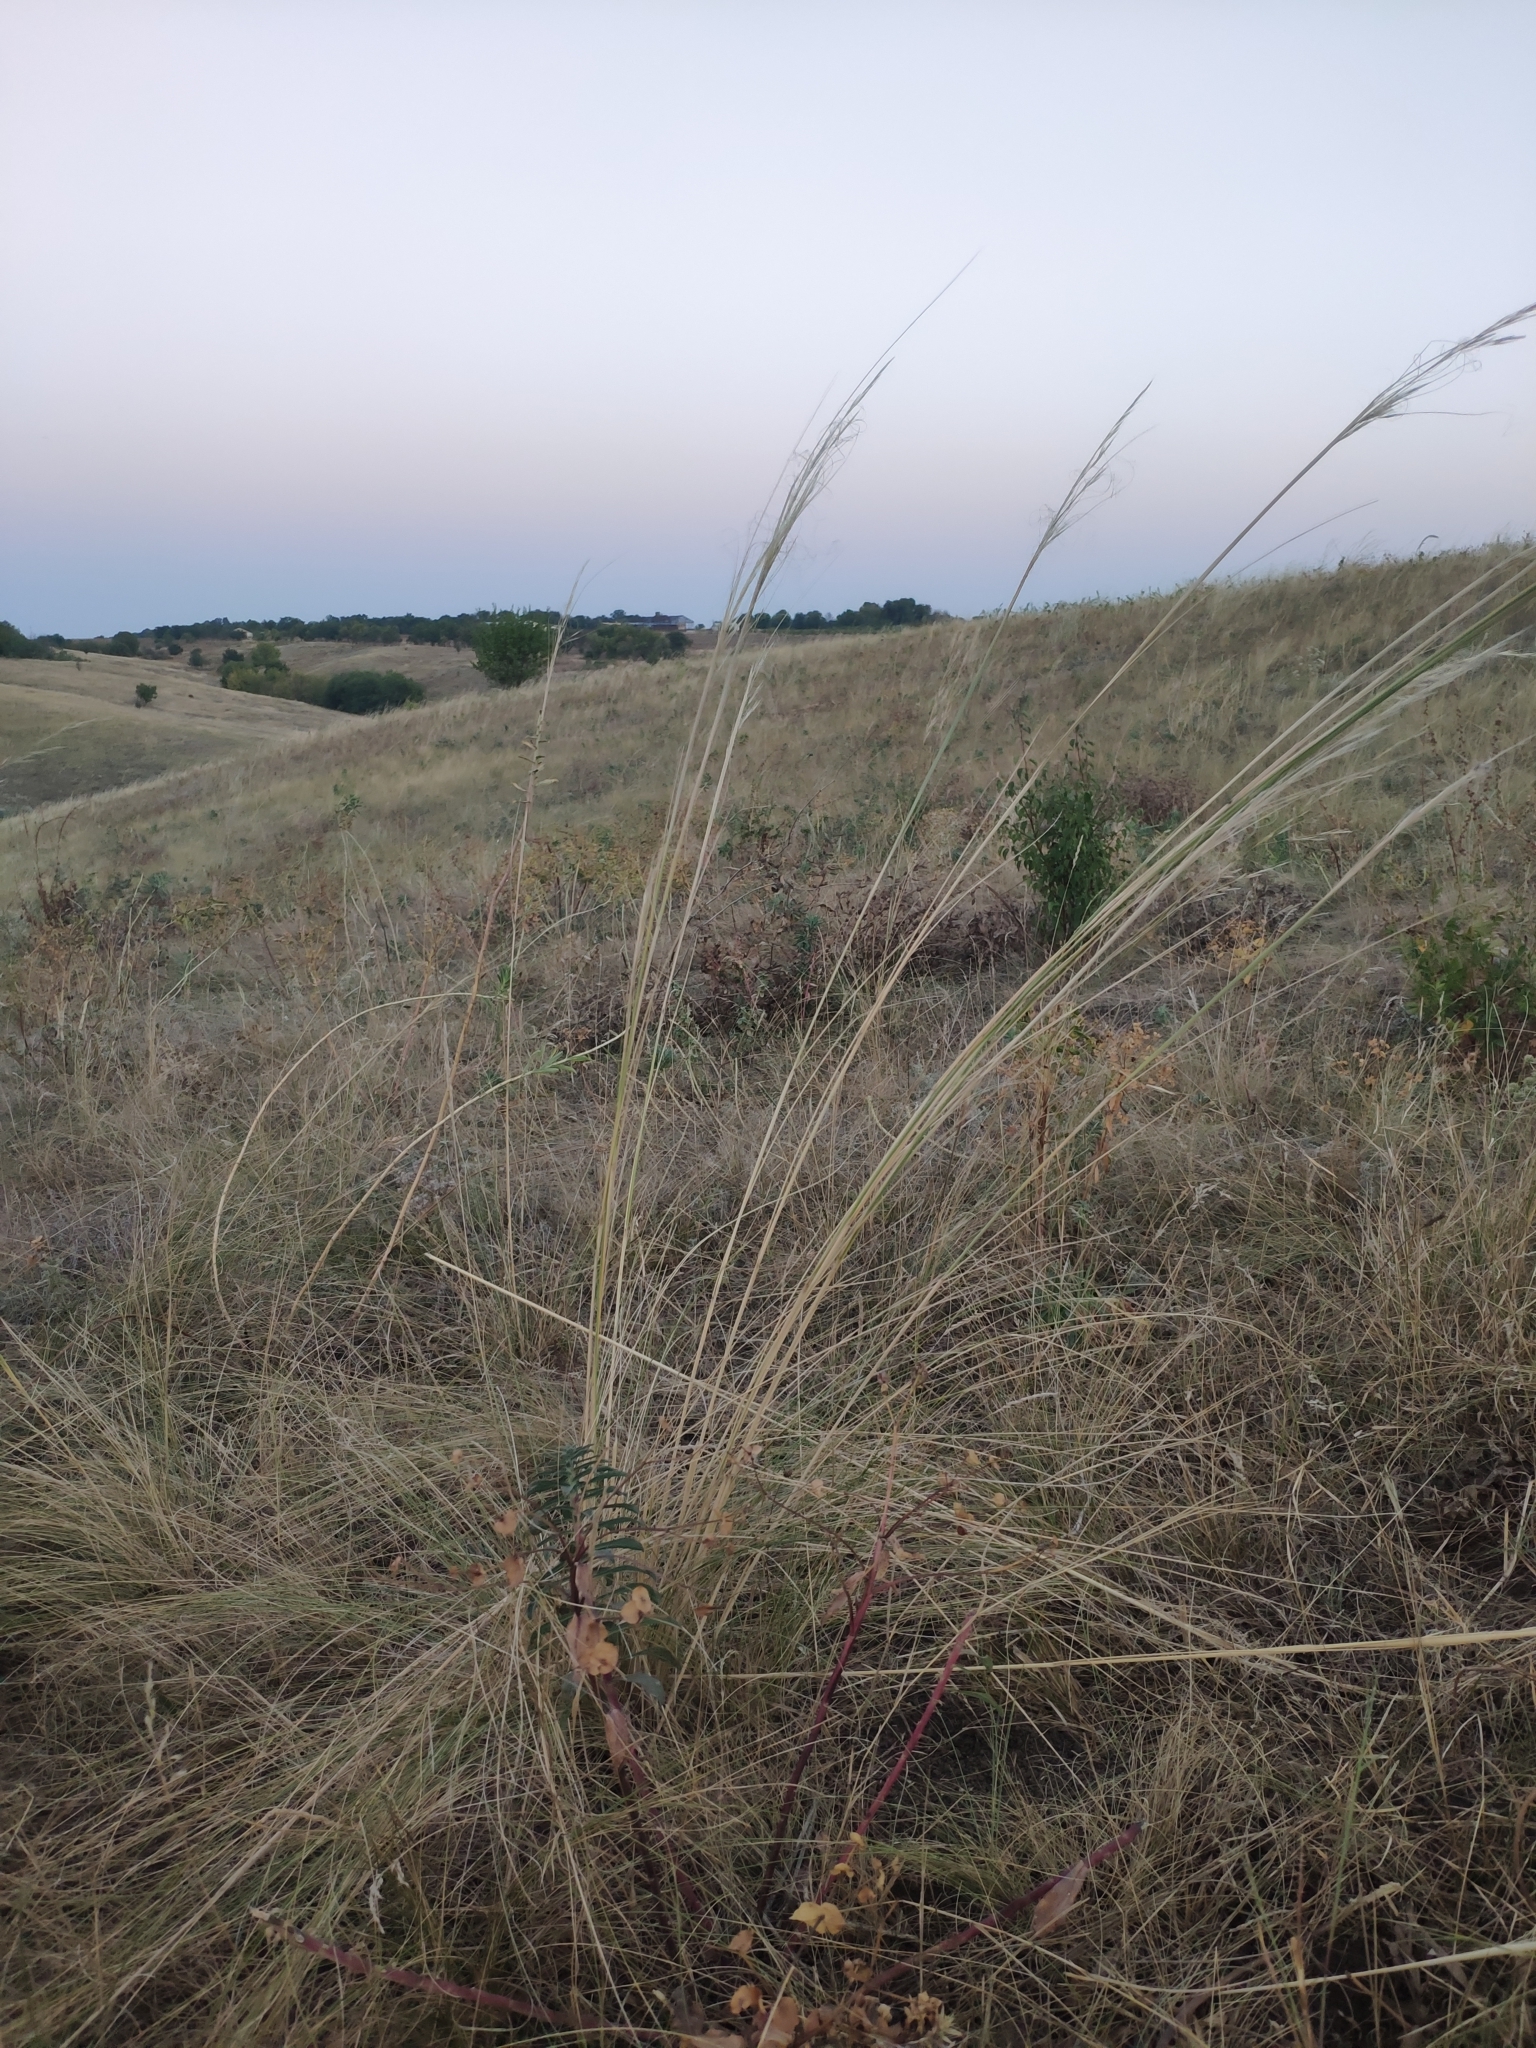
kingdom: Plantae
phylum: Tracheophyta
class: Liliopsida
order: Poales
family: Poaceae
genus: Stipa
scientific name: Stipa capillata
